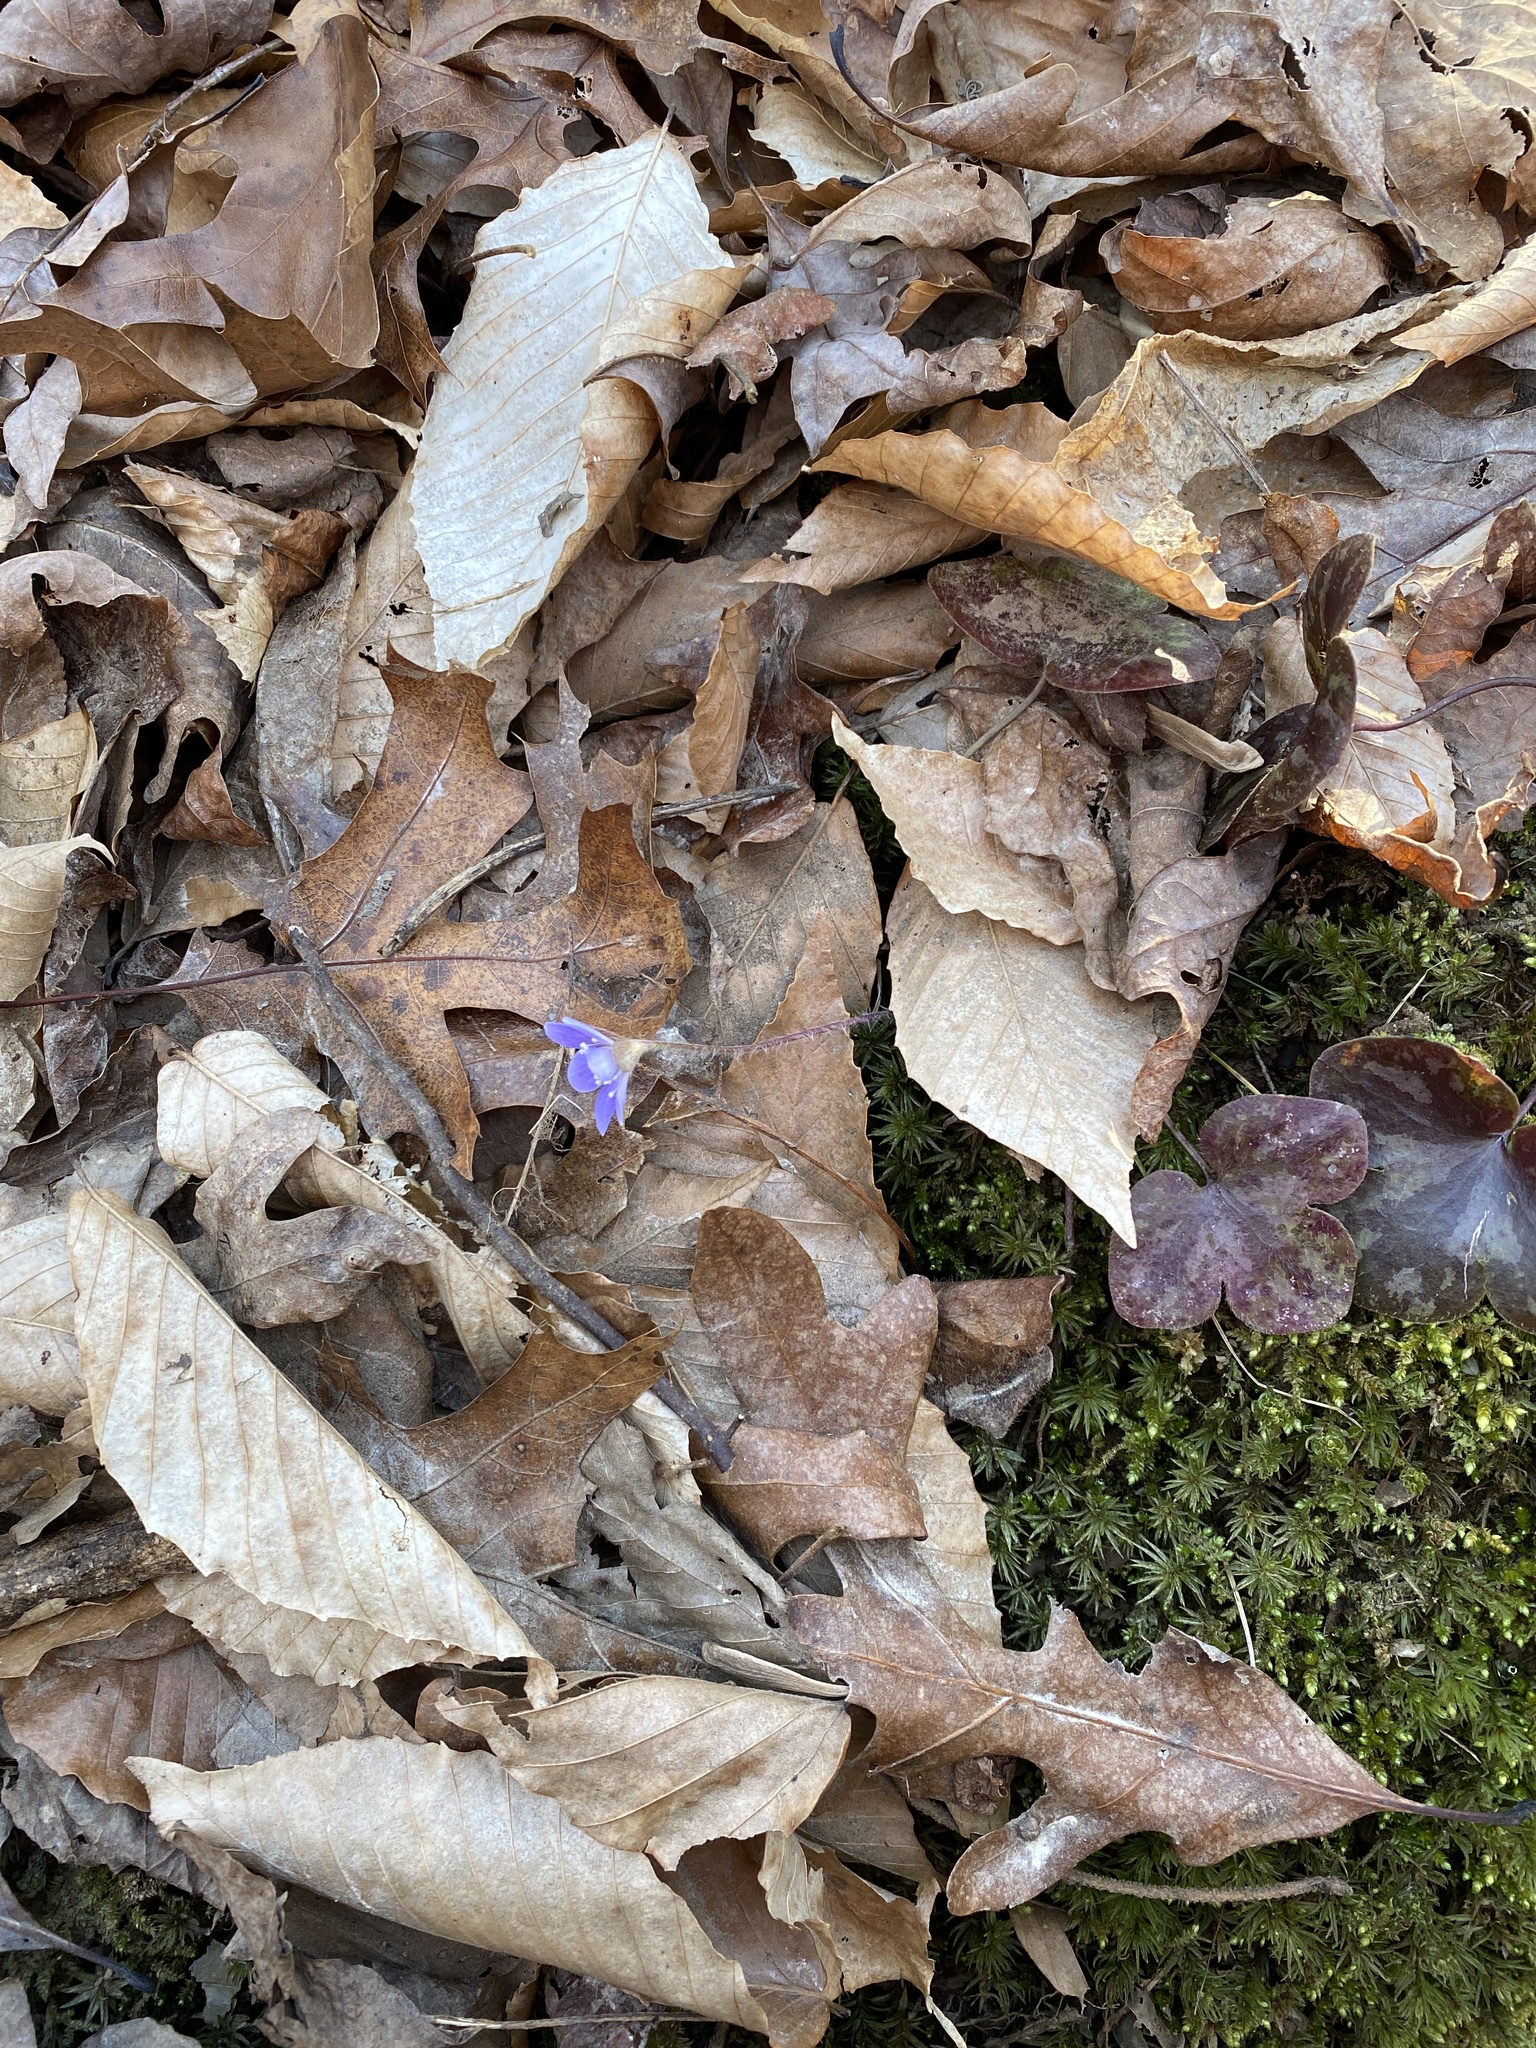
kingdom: Plantae
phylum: Tracheophyta
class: Magnoliopsida
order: Ranunculales
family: Ranunculaceae
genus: Hepatica
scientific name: Hepatica americana
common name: American hepatica
